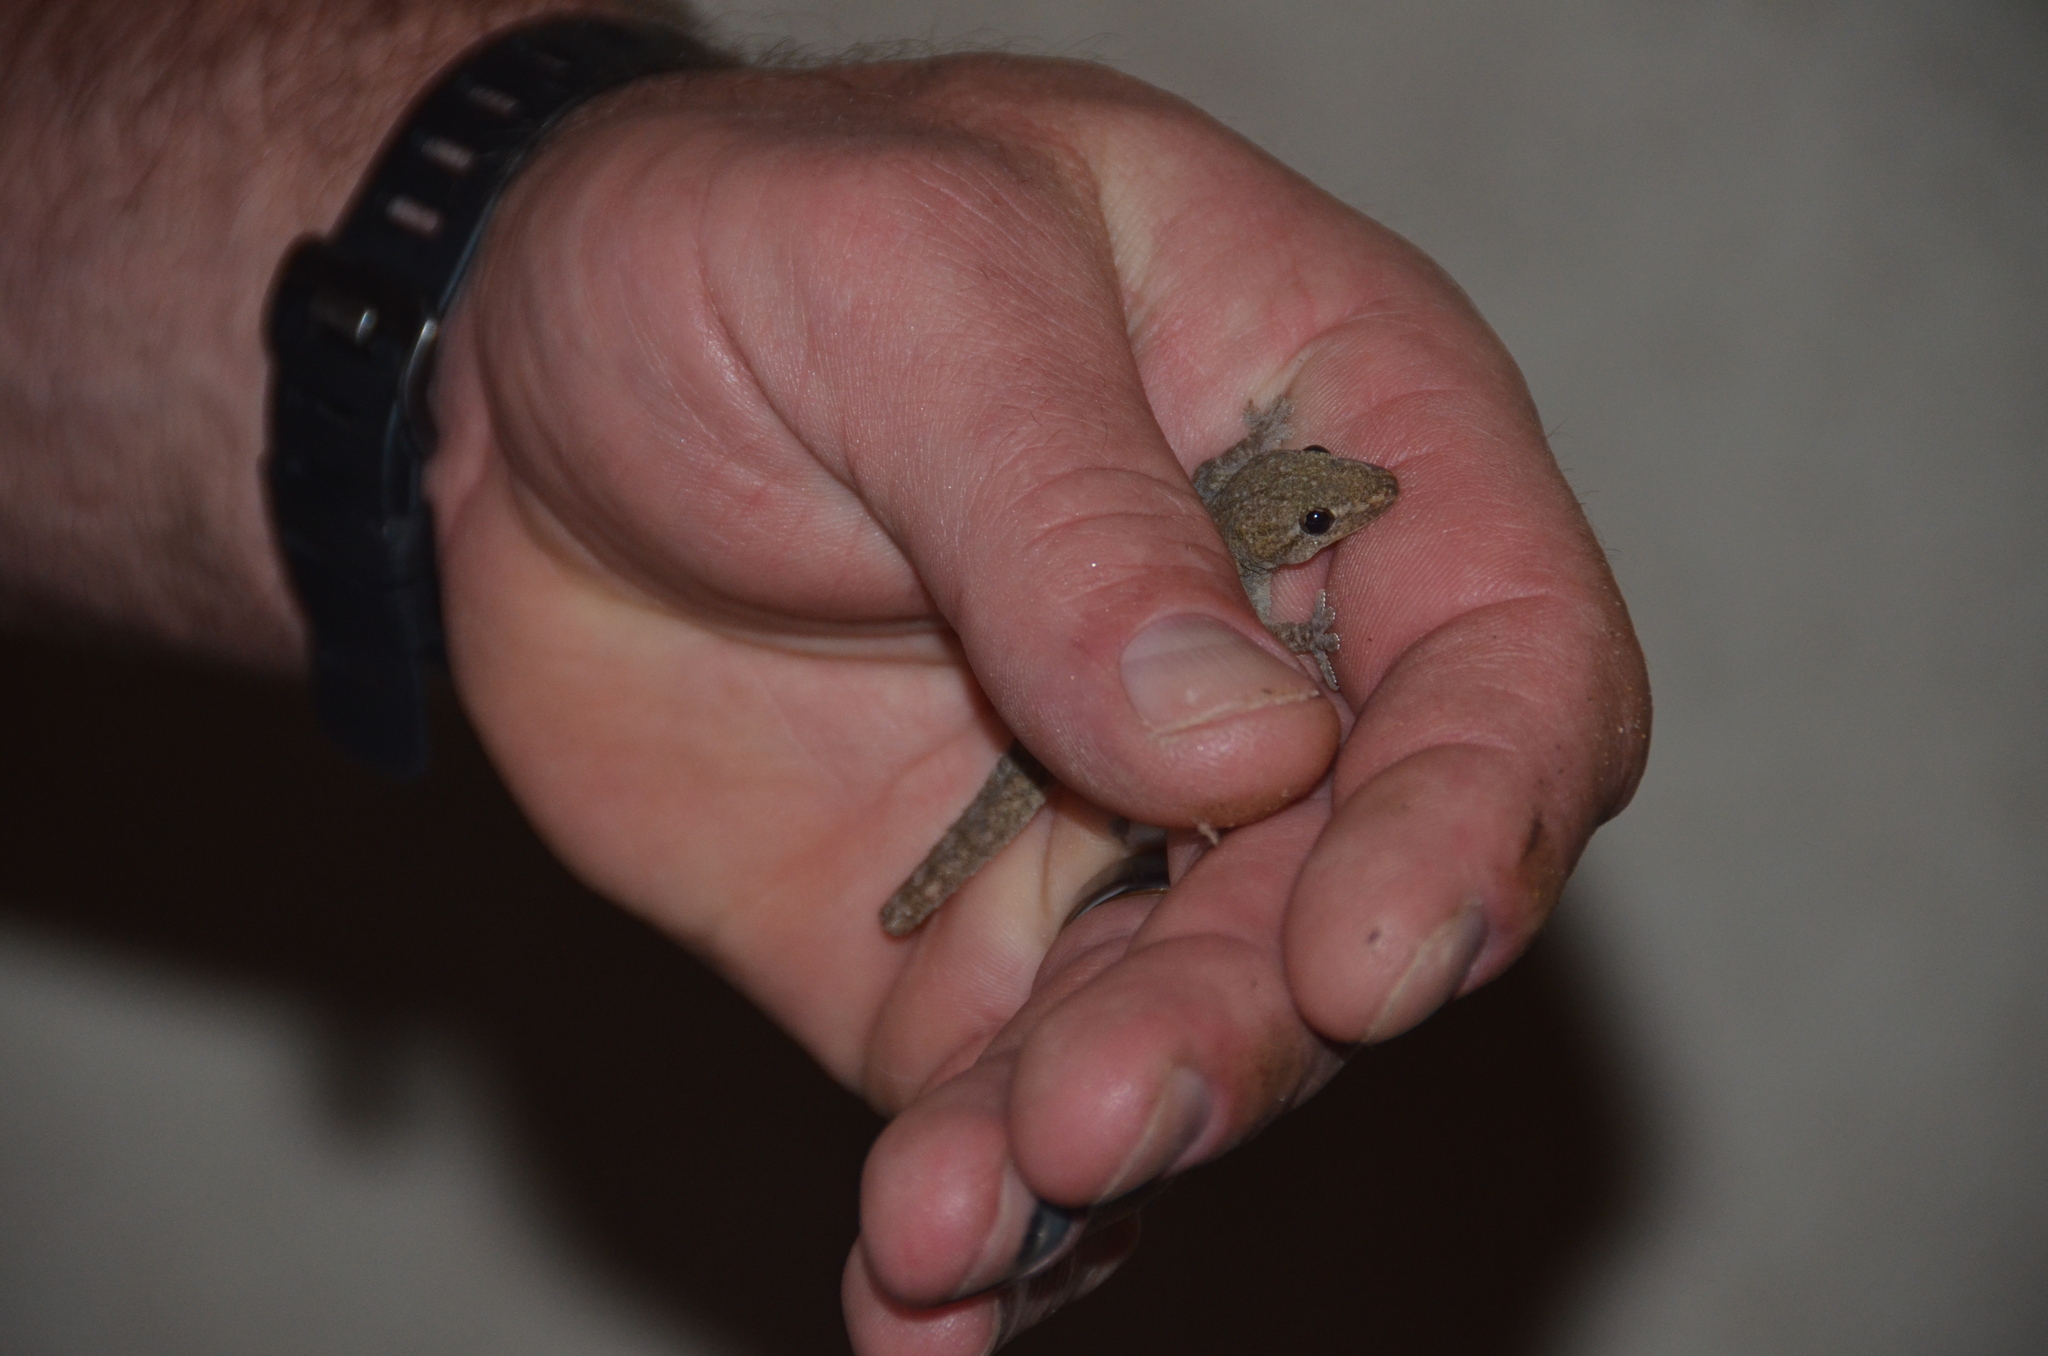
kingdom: Animalia
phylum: Chordata
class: Squamata
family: Gekkonidae
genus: Lepidodactylus
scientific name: Lepidodactylus lugubris
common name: Mourning gecko
